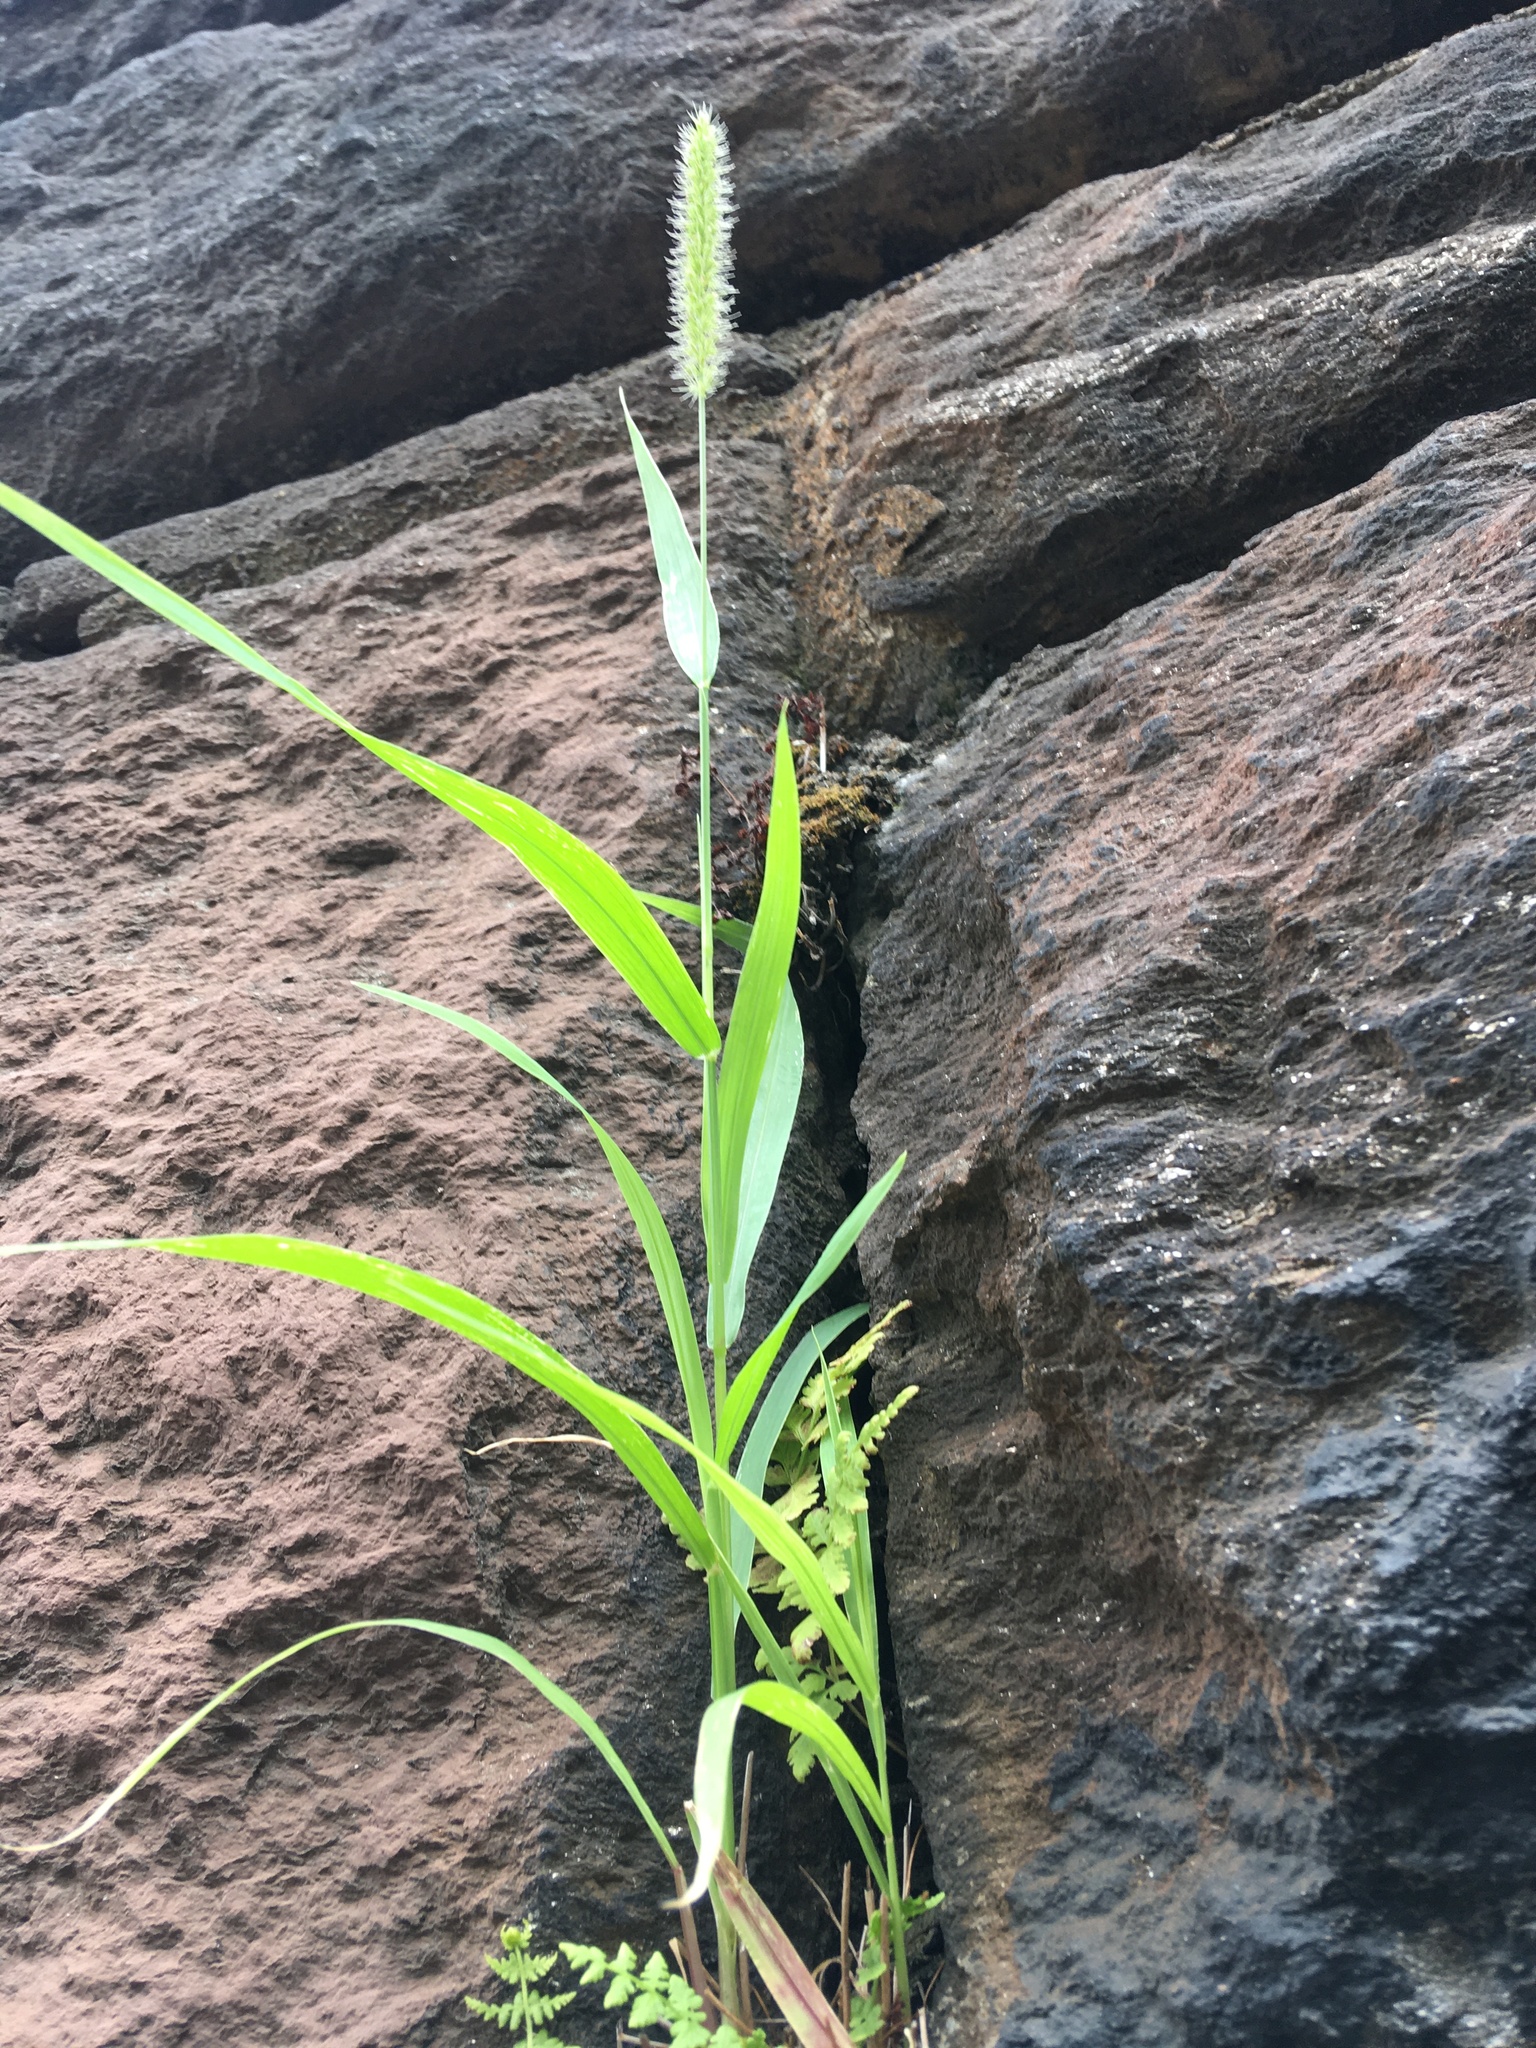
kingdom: Plantae
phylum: Tracheophyta
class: Liliopsida
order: Poales
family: Poaceae
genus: Setaria
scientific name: Setaria viridis
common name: Green bristlegrass
